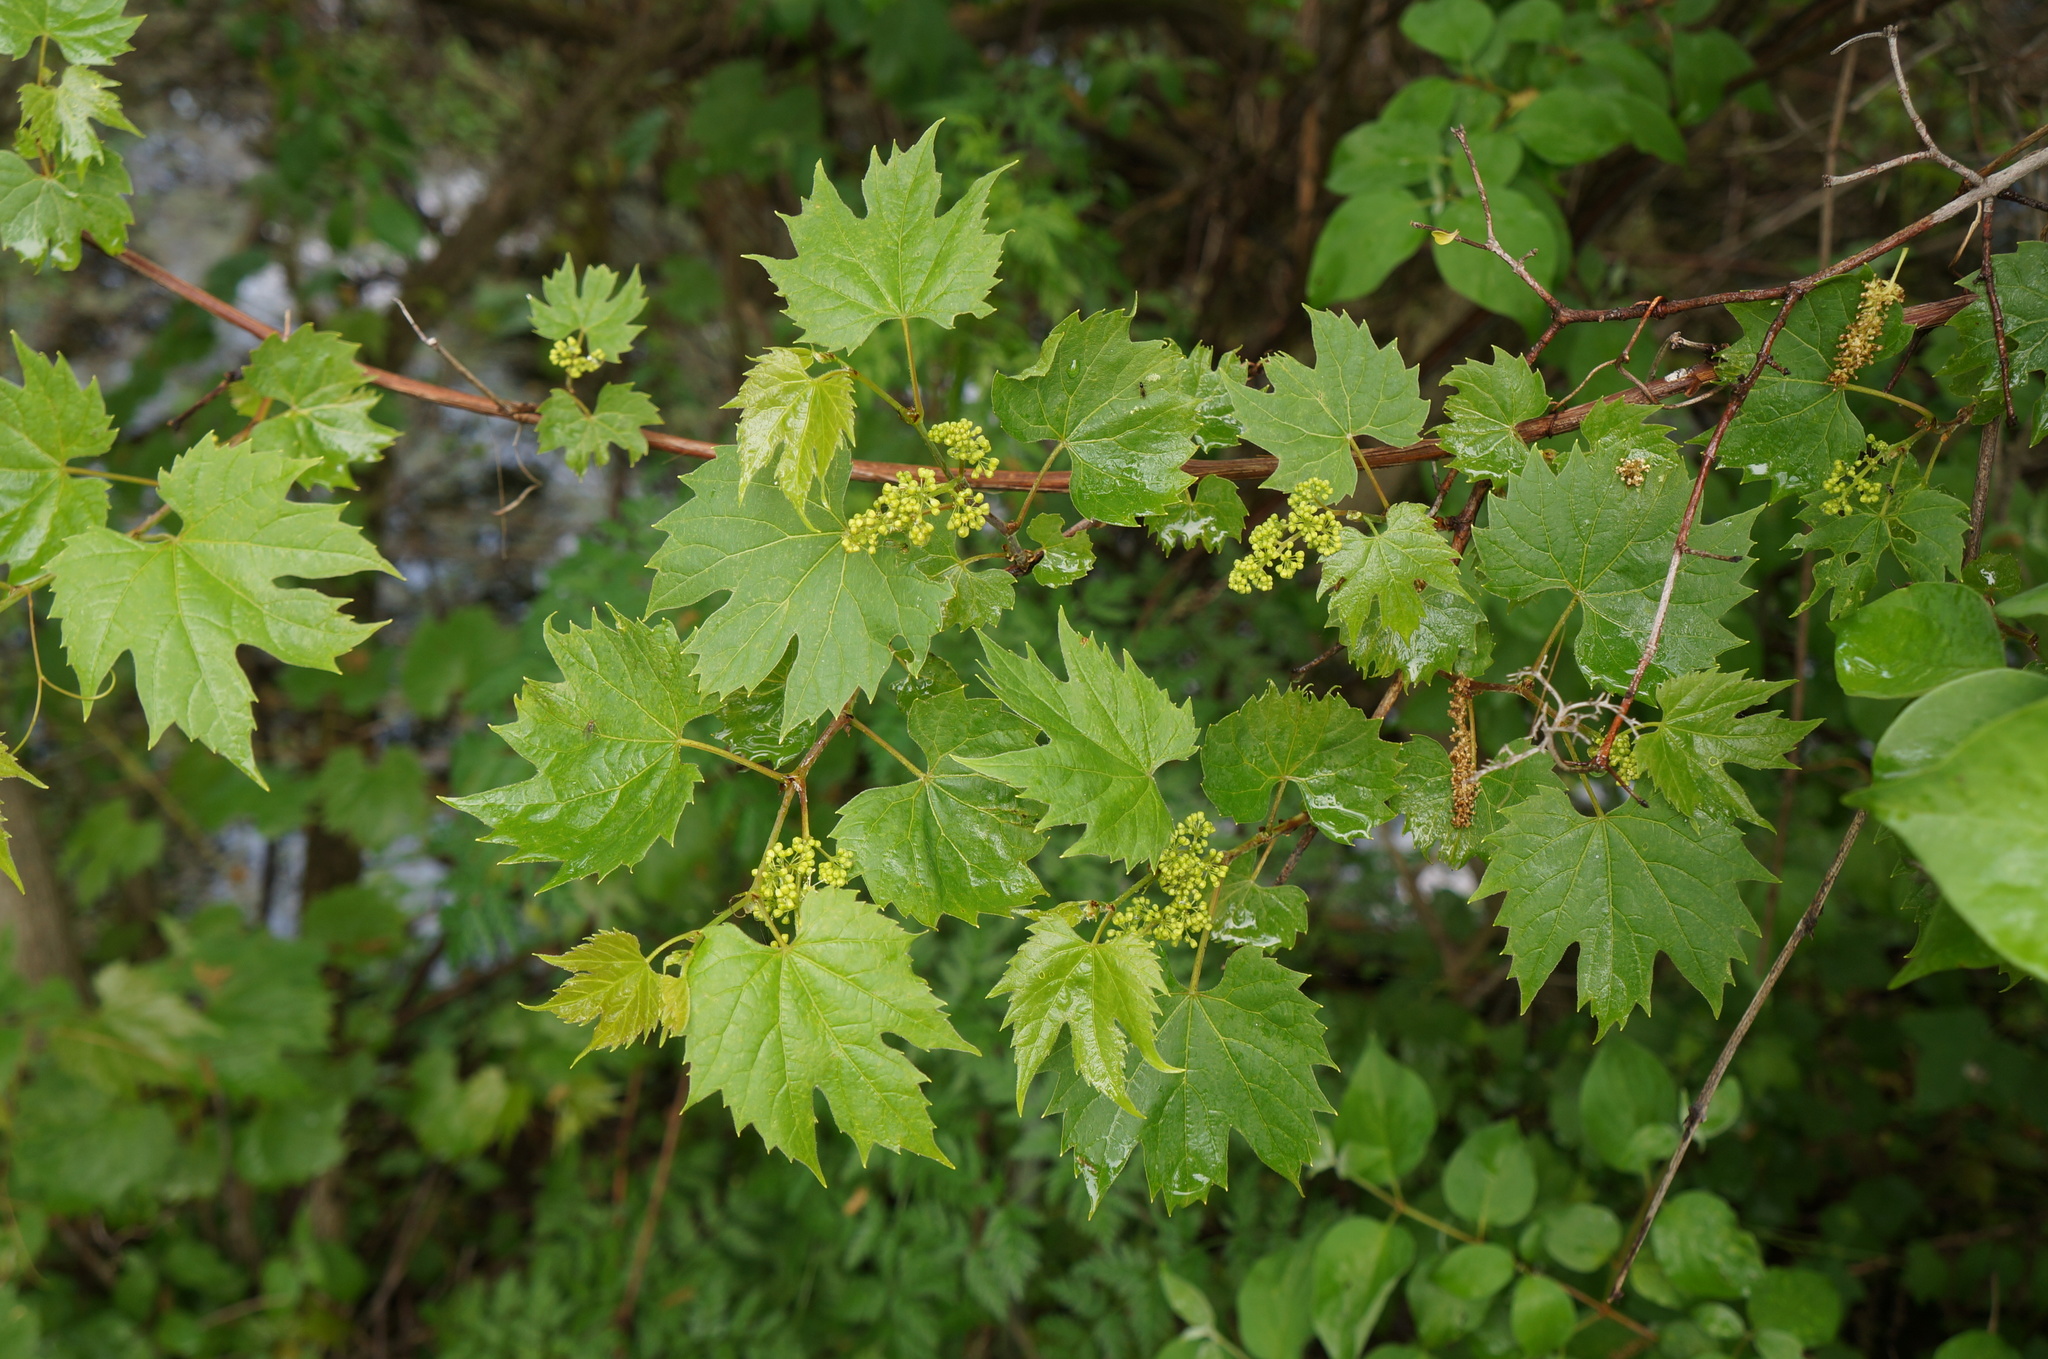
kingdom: Plantae
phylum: Tracheophyta
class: Magnoliopsida
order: Vitales
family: Vitaceae
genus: Vitis
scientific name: Vitis riparia
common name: Frost grape
